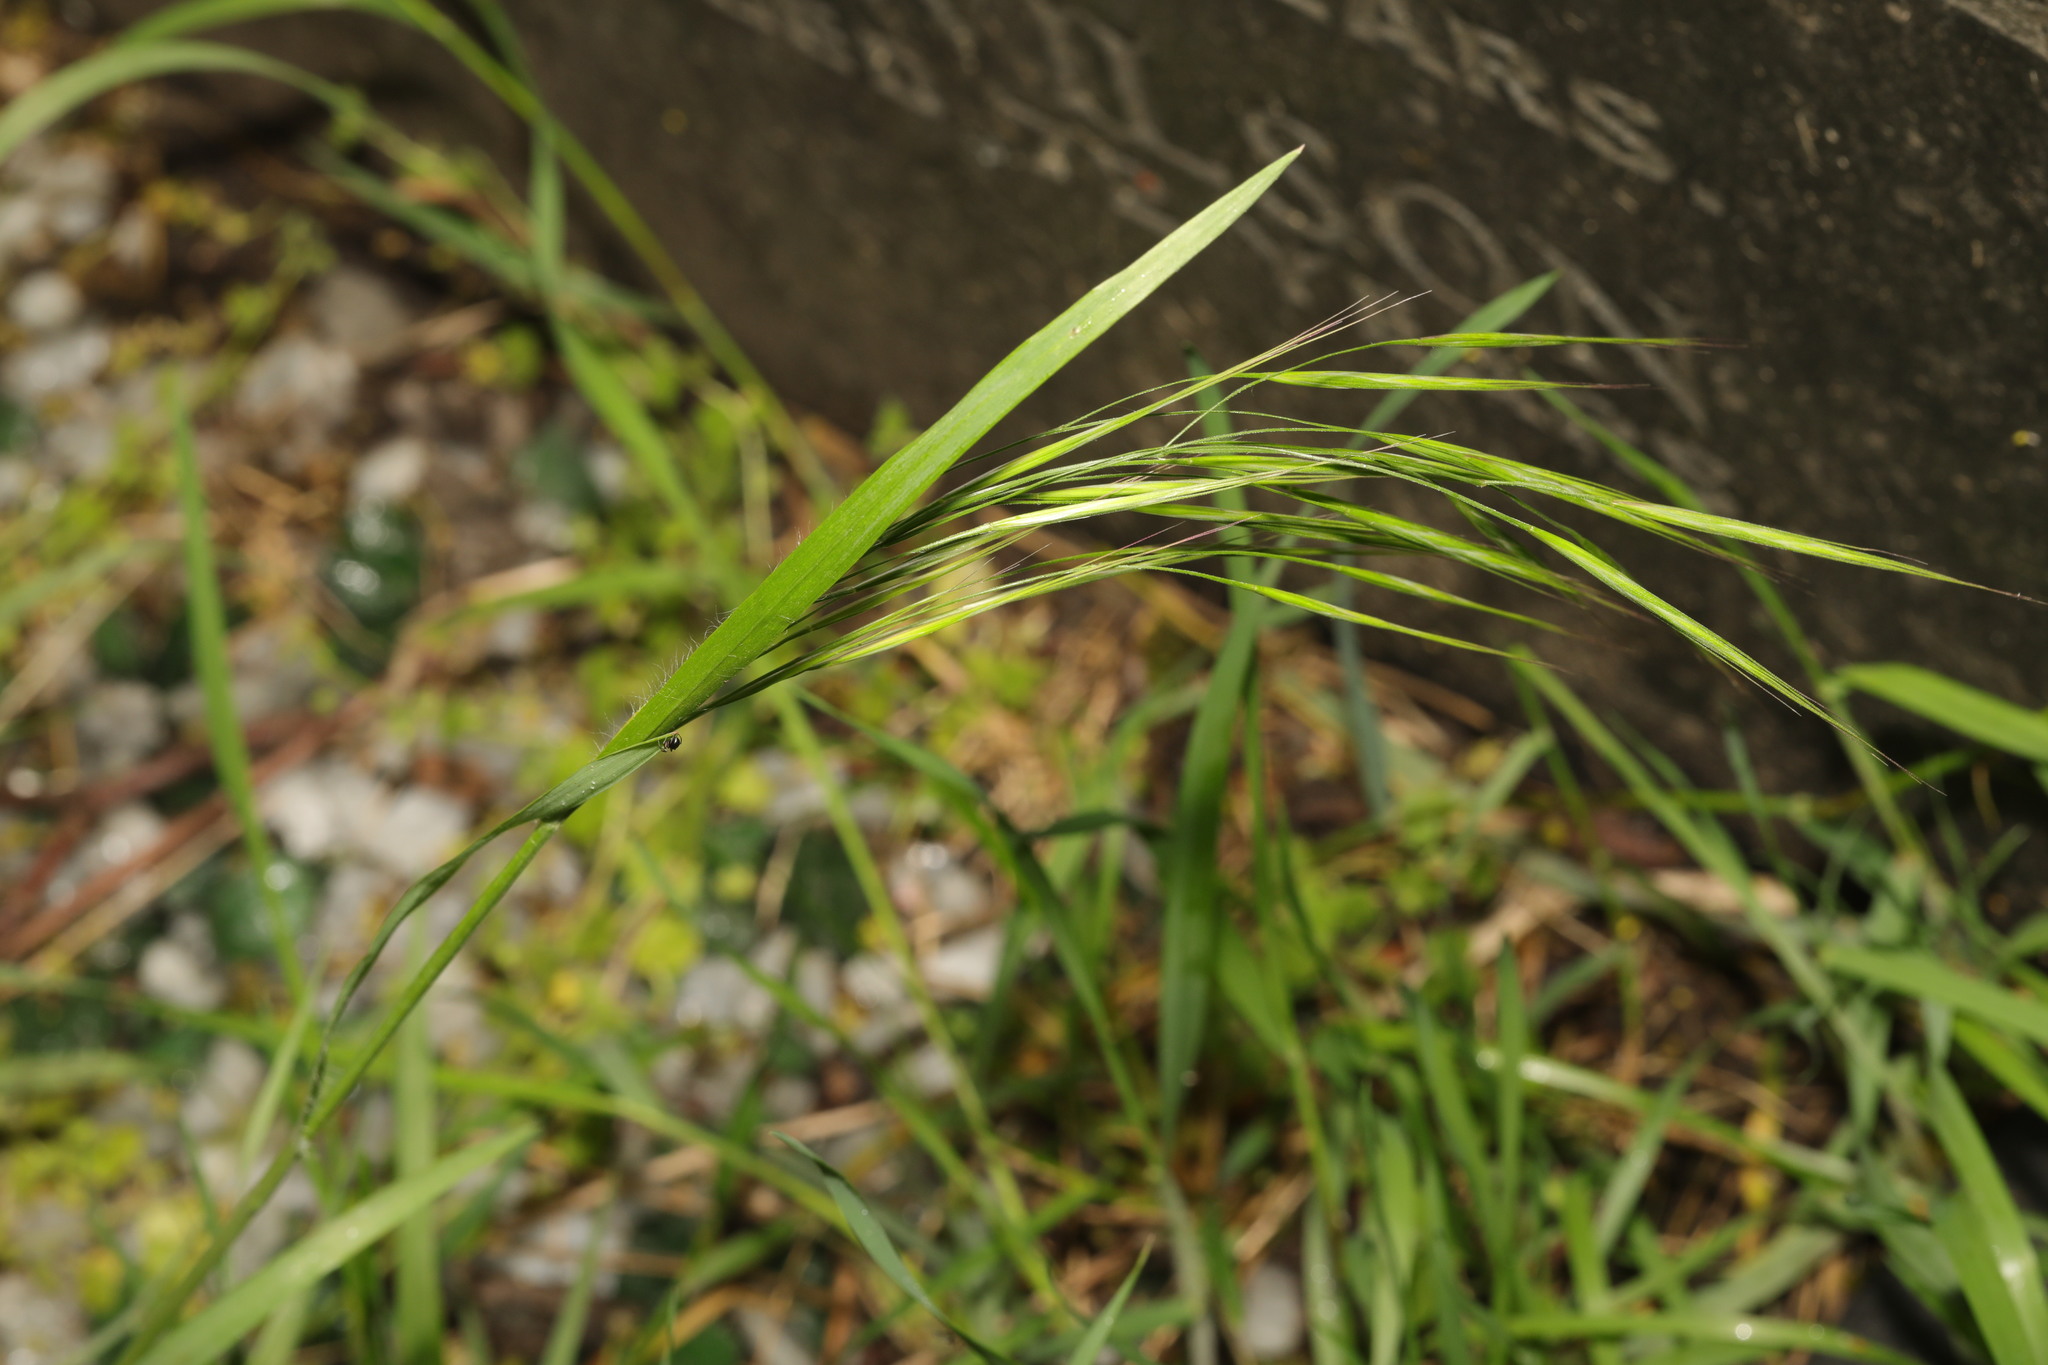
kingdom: Plantae
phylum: Tracheophyta
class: Liliopsida
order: Poales
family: Poaceae
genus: Bromus
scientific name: Bromus sterilis
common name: Poverty brome
